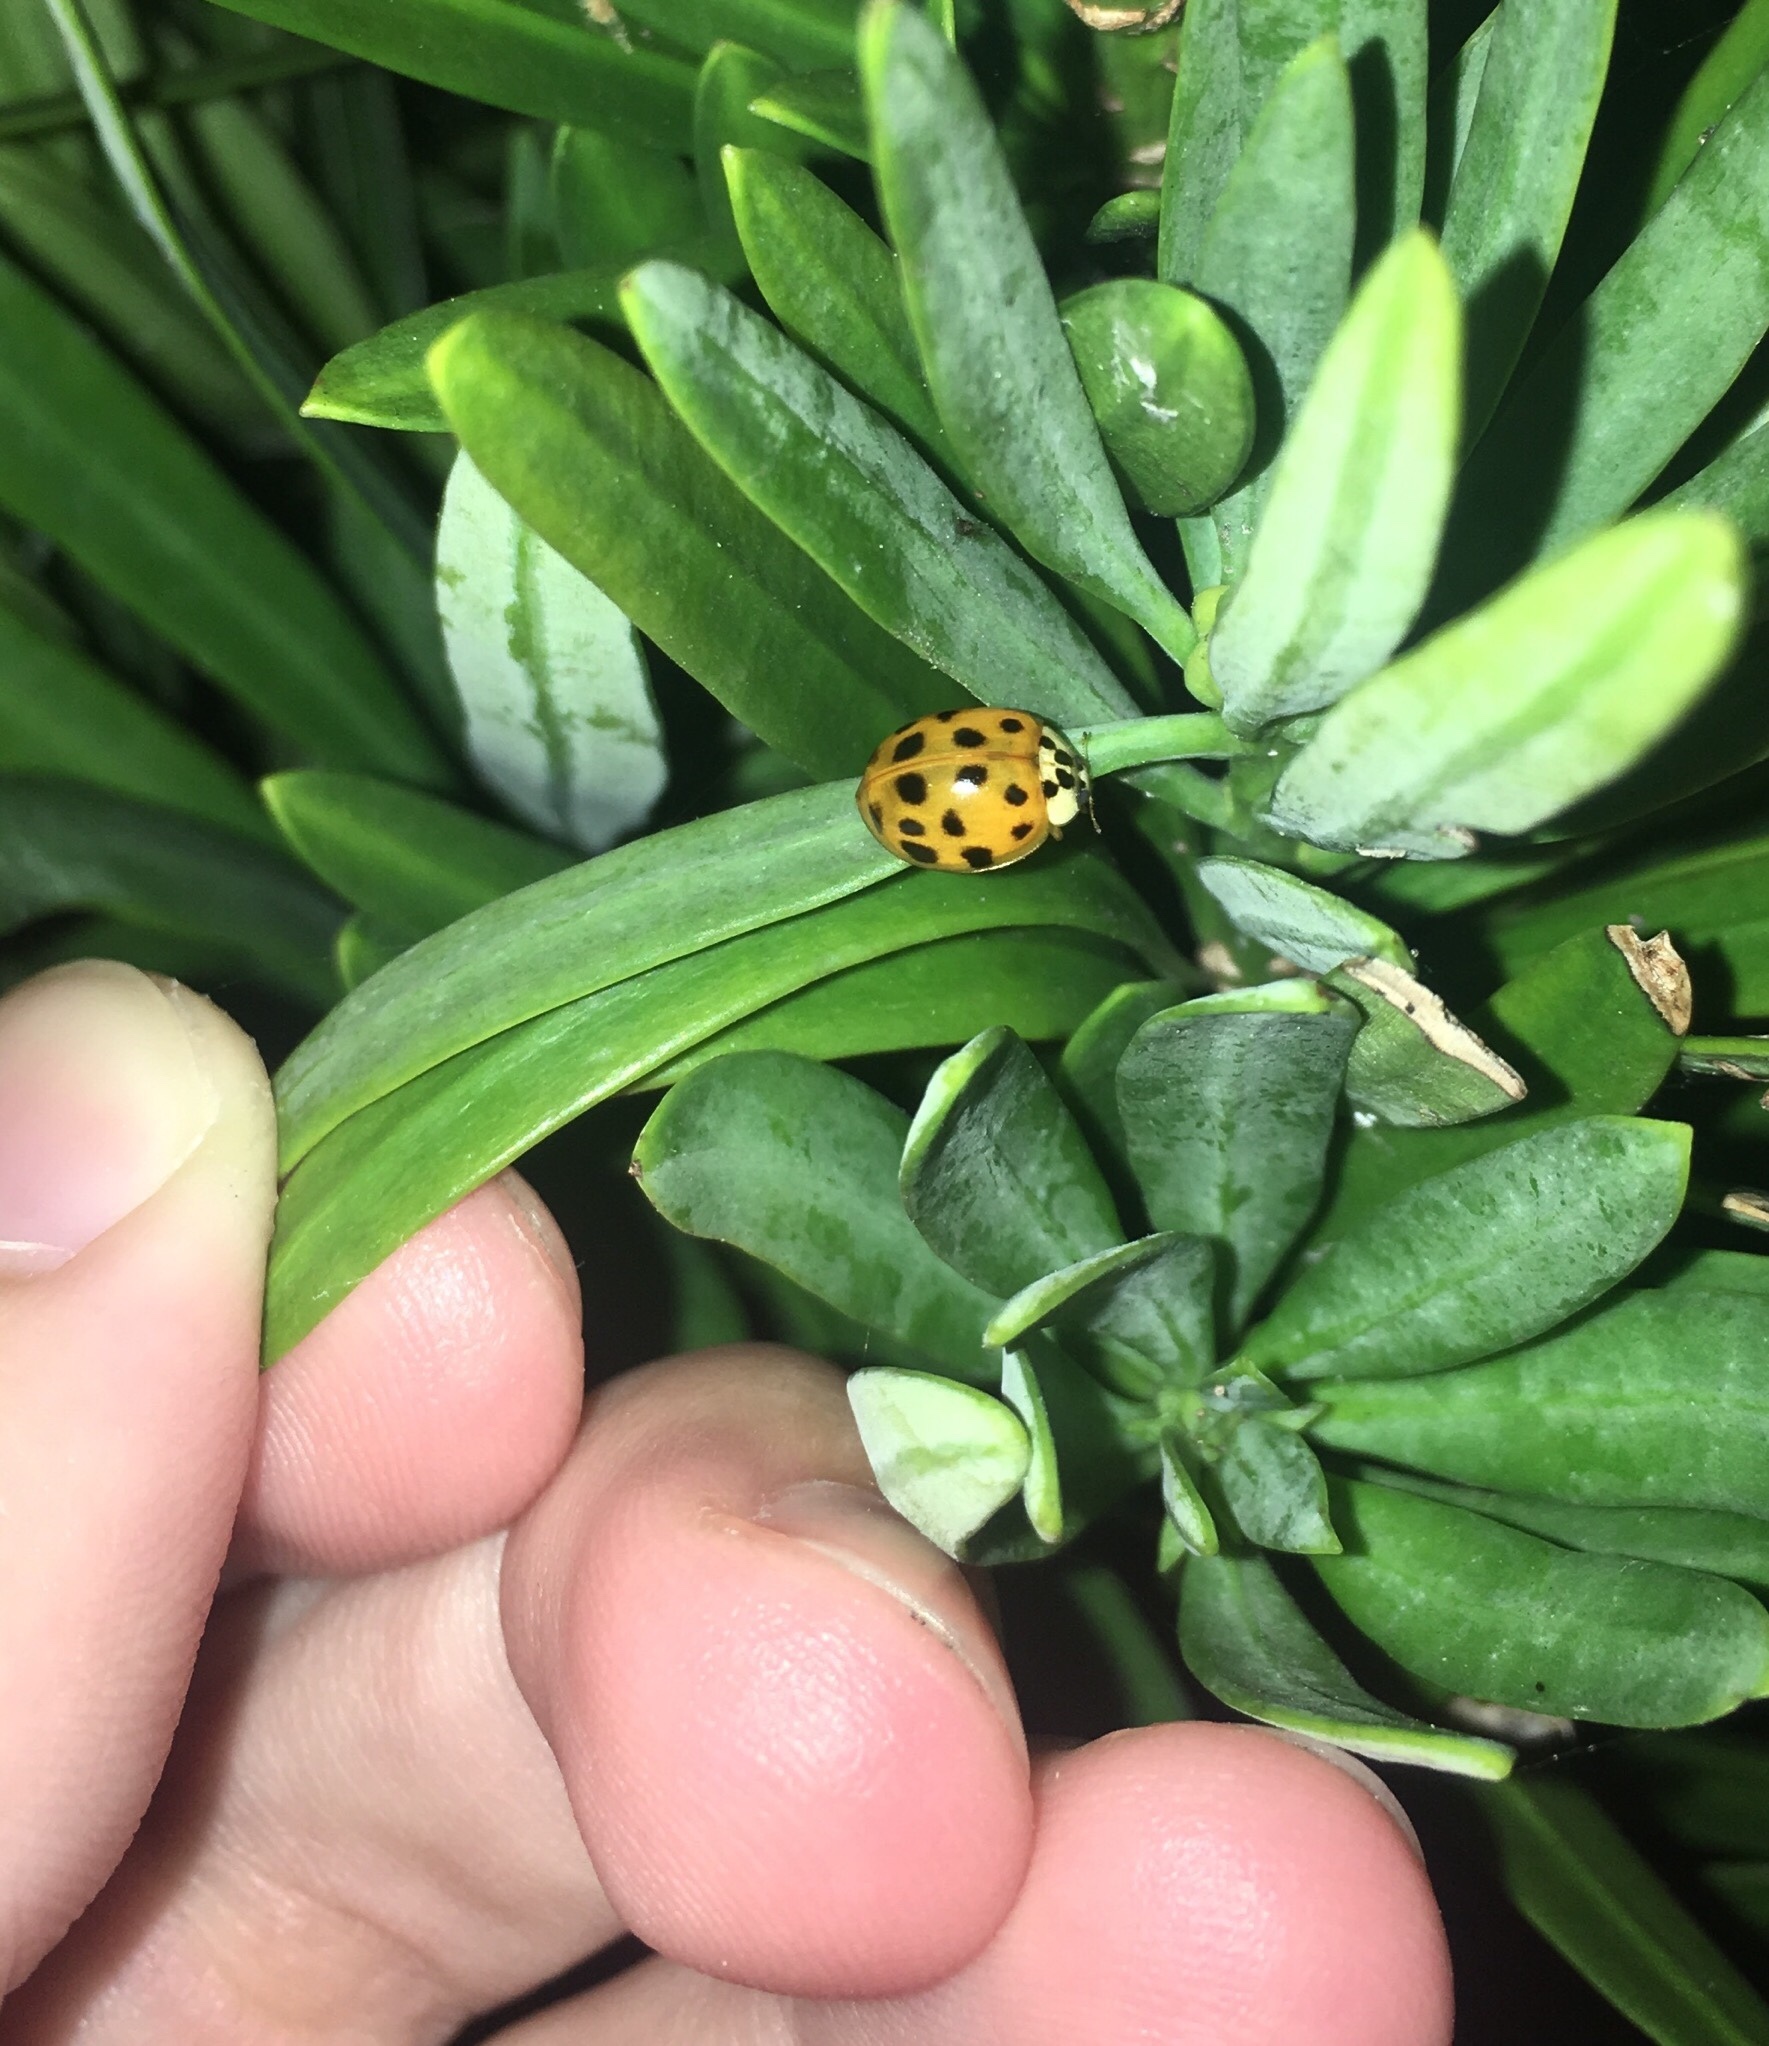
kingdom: Animalia
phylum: Arthropoda
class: Insecta
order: Coleoptera
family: Coccinellidae
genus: Harmonia
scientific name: Harmonia axyridis
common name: Harlequin ladybird
